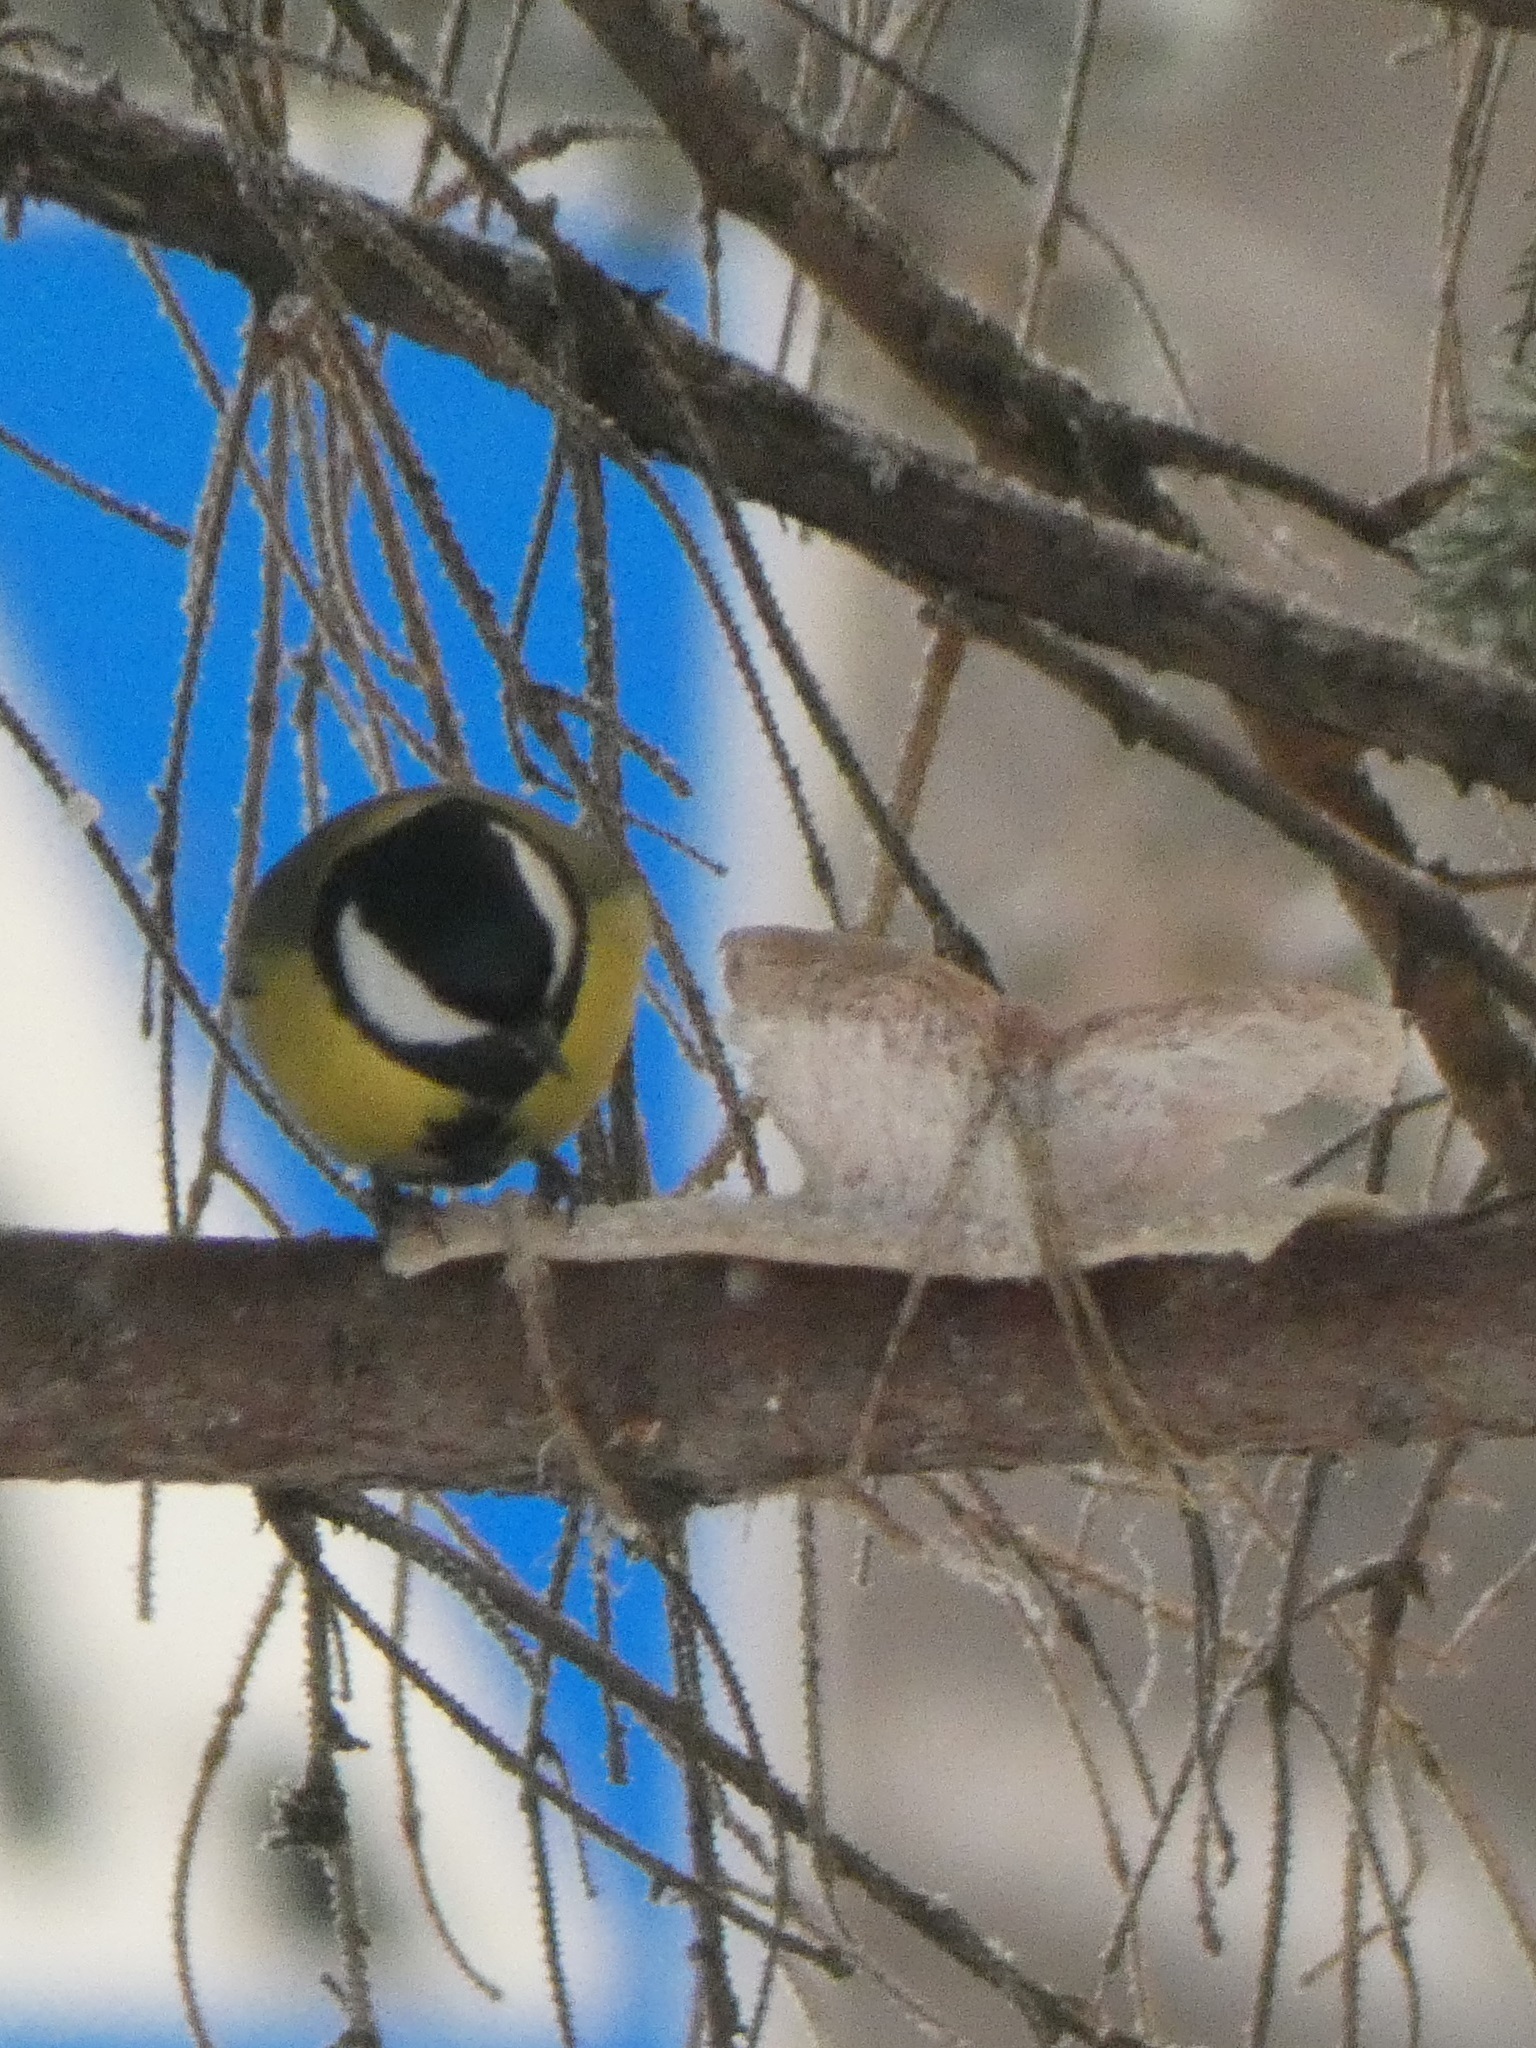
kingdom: Animalia
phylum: Chordata
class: Aves
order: Passeriformes
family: Paridae
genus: Parus
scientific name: Parus major
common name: Great tit
